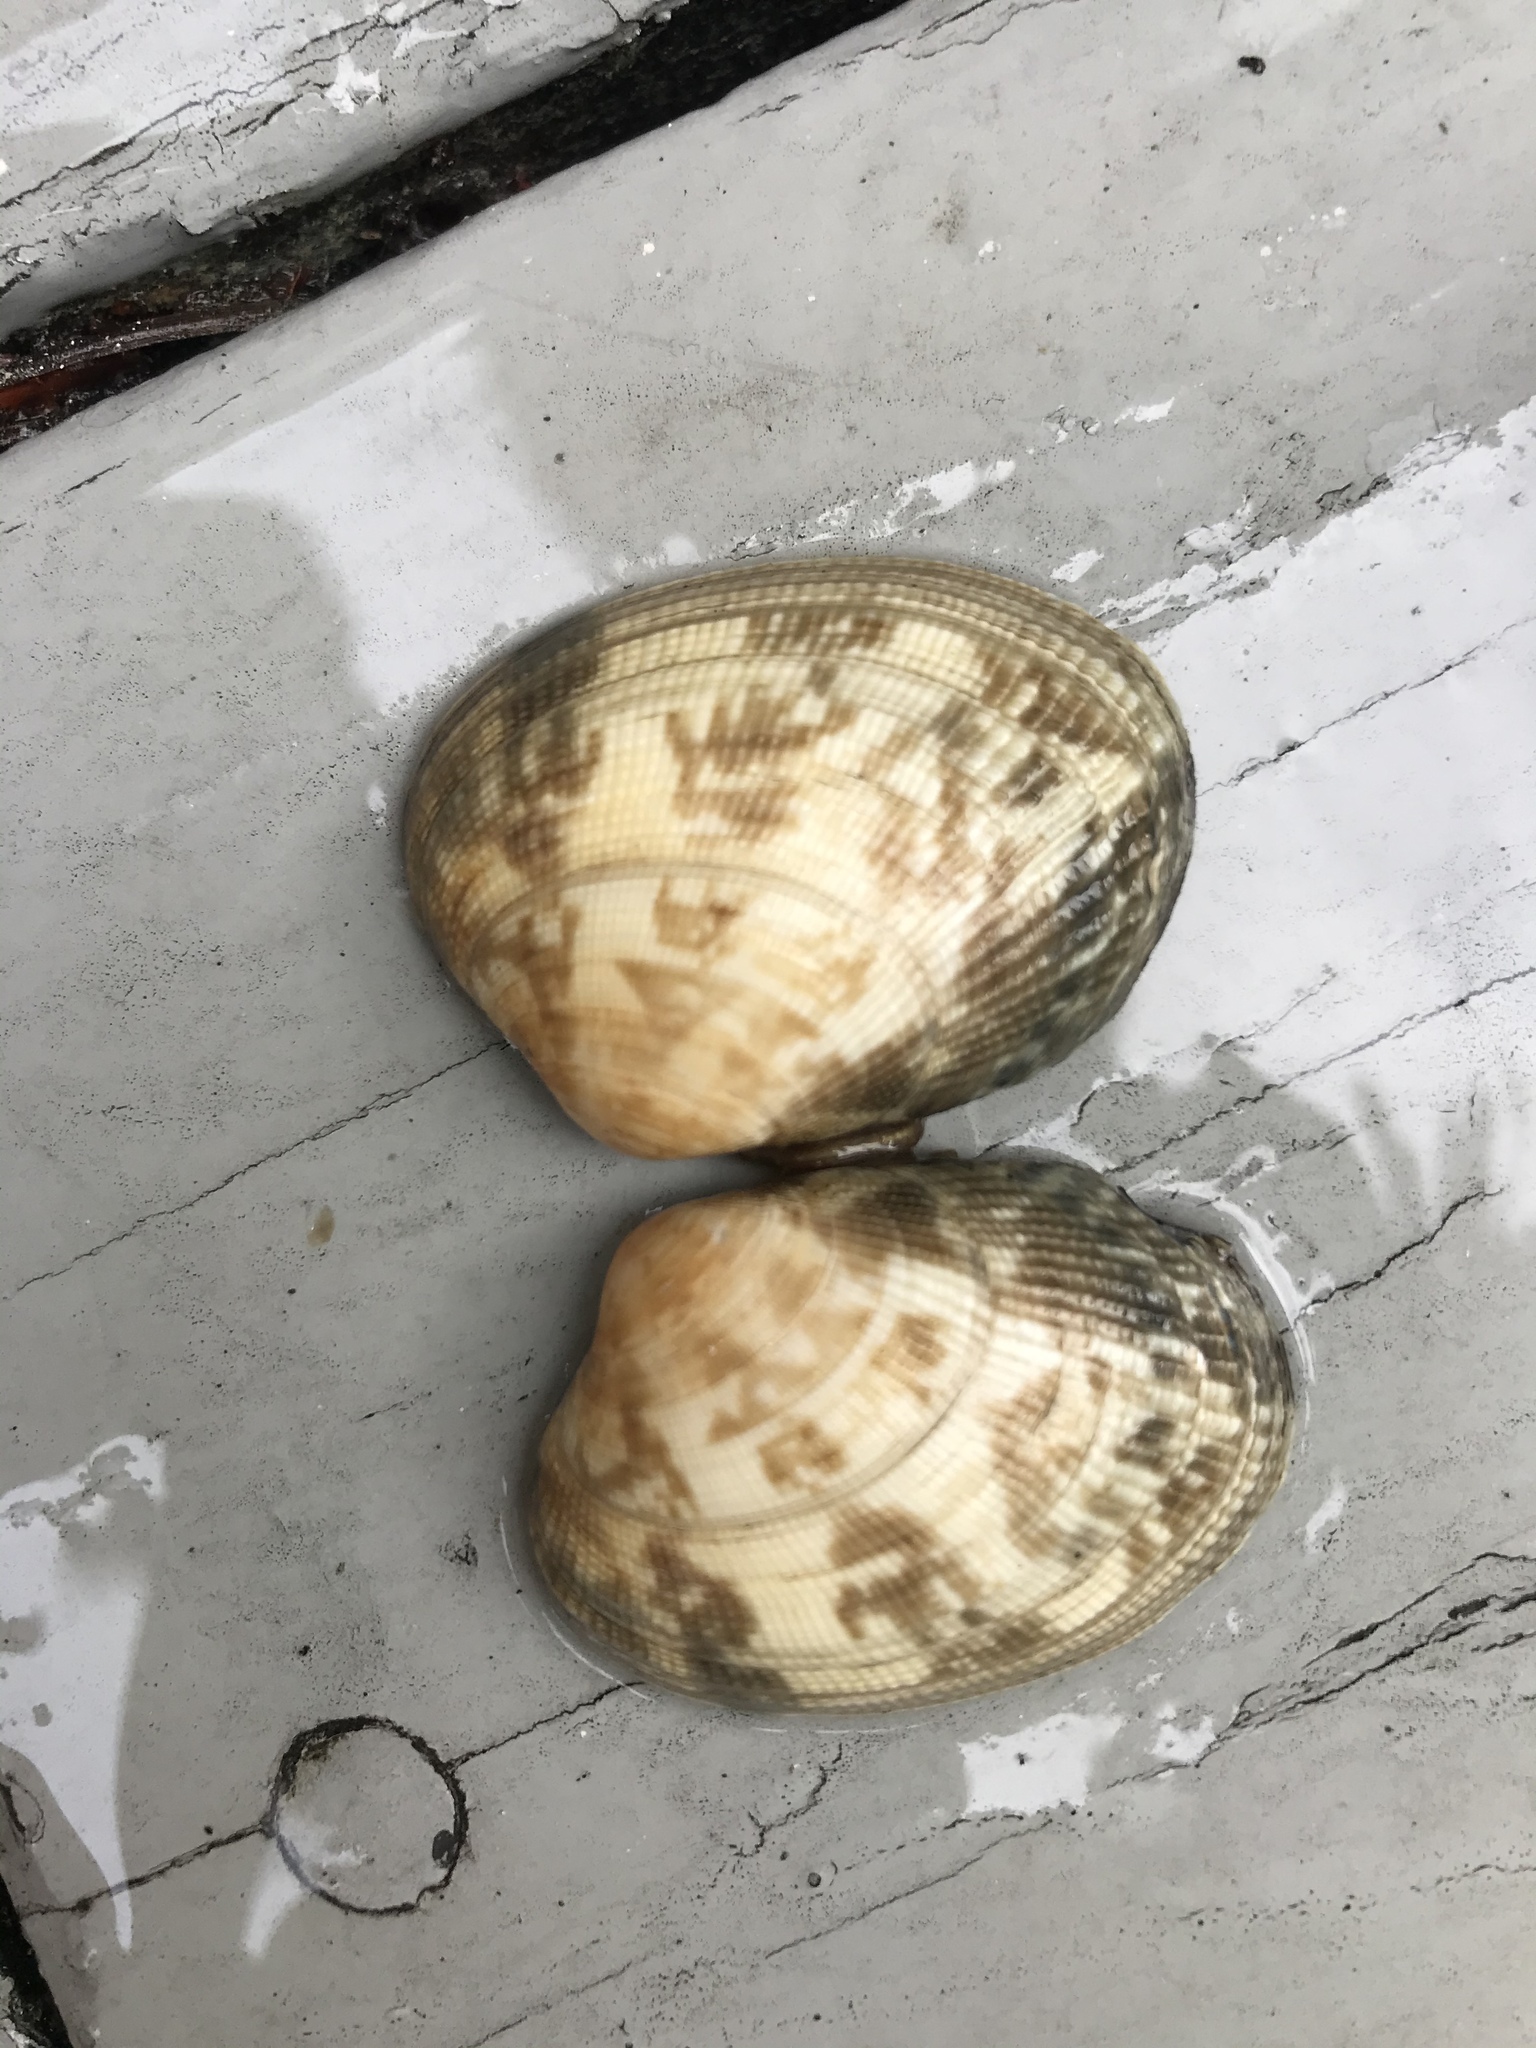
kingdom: Animalia
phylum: Mollusca
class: Bivalvia
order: Venerida
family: Veneridae
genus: Ruditapes
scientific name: Ruditapes philippinarum
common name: Manila clam
